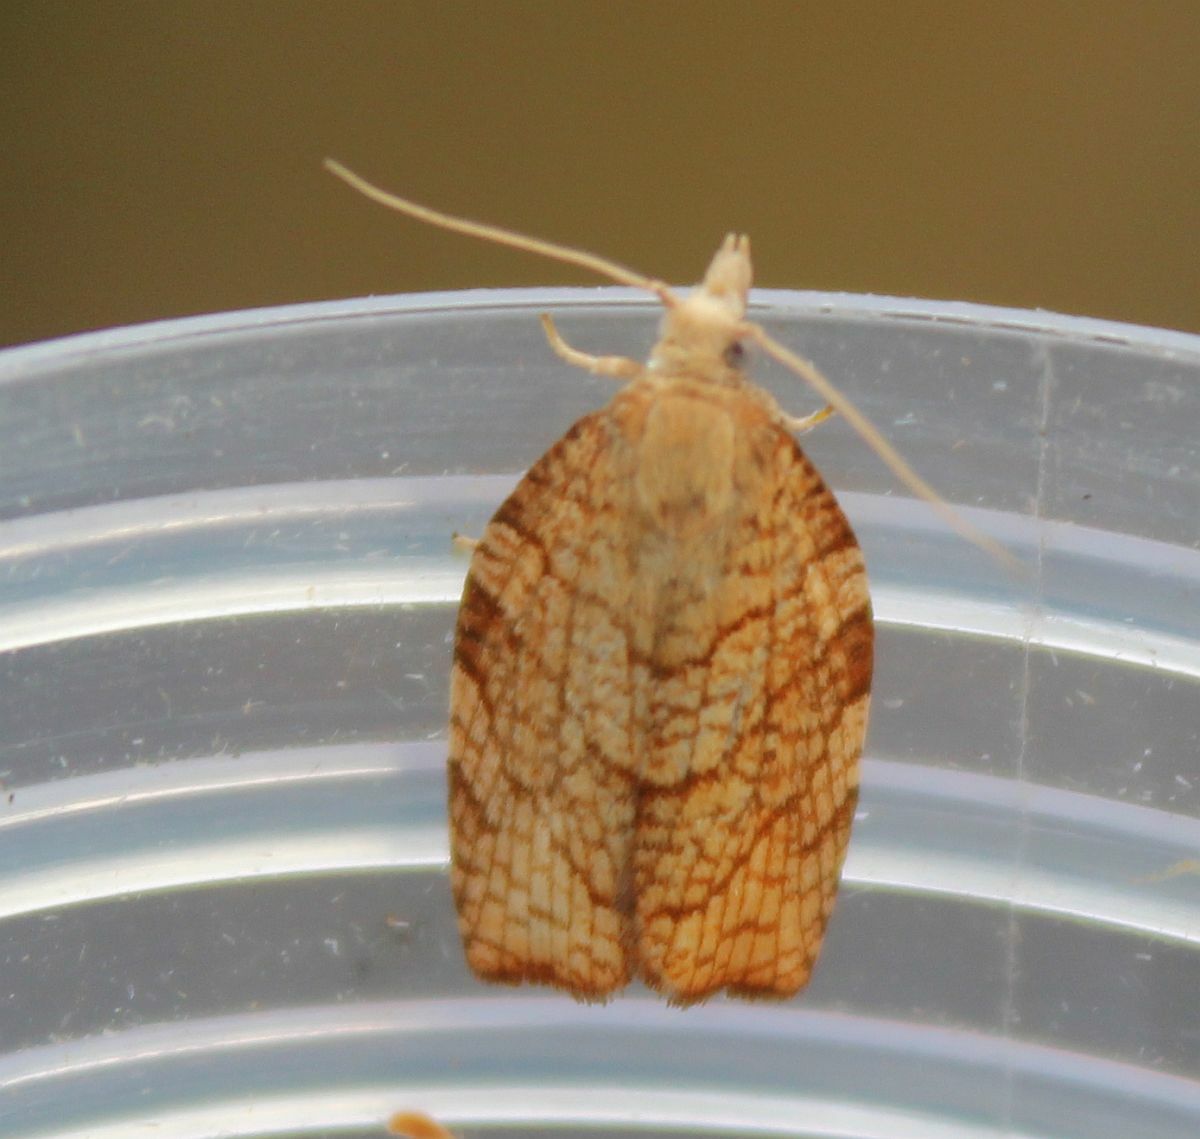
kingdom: Animalia
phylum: Arthropoda
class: Insecta
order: Lepidoptera
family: Tortricidae
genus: Pandemis
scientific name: Pandemis corylana
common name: Chequered fruit-tree tortrix
